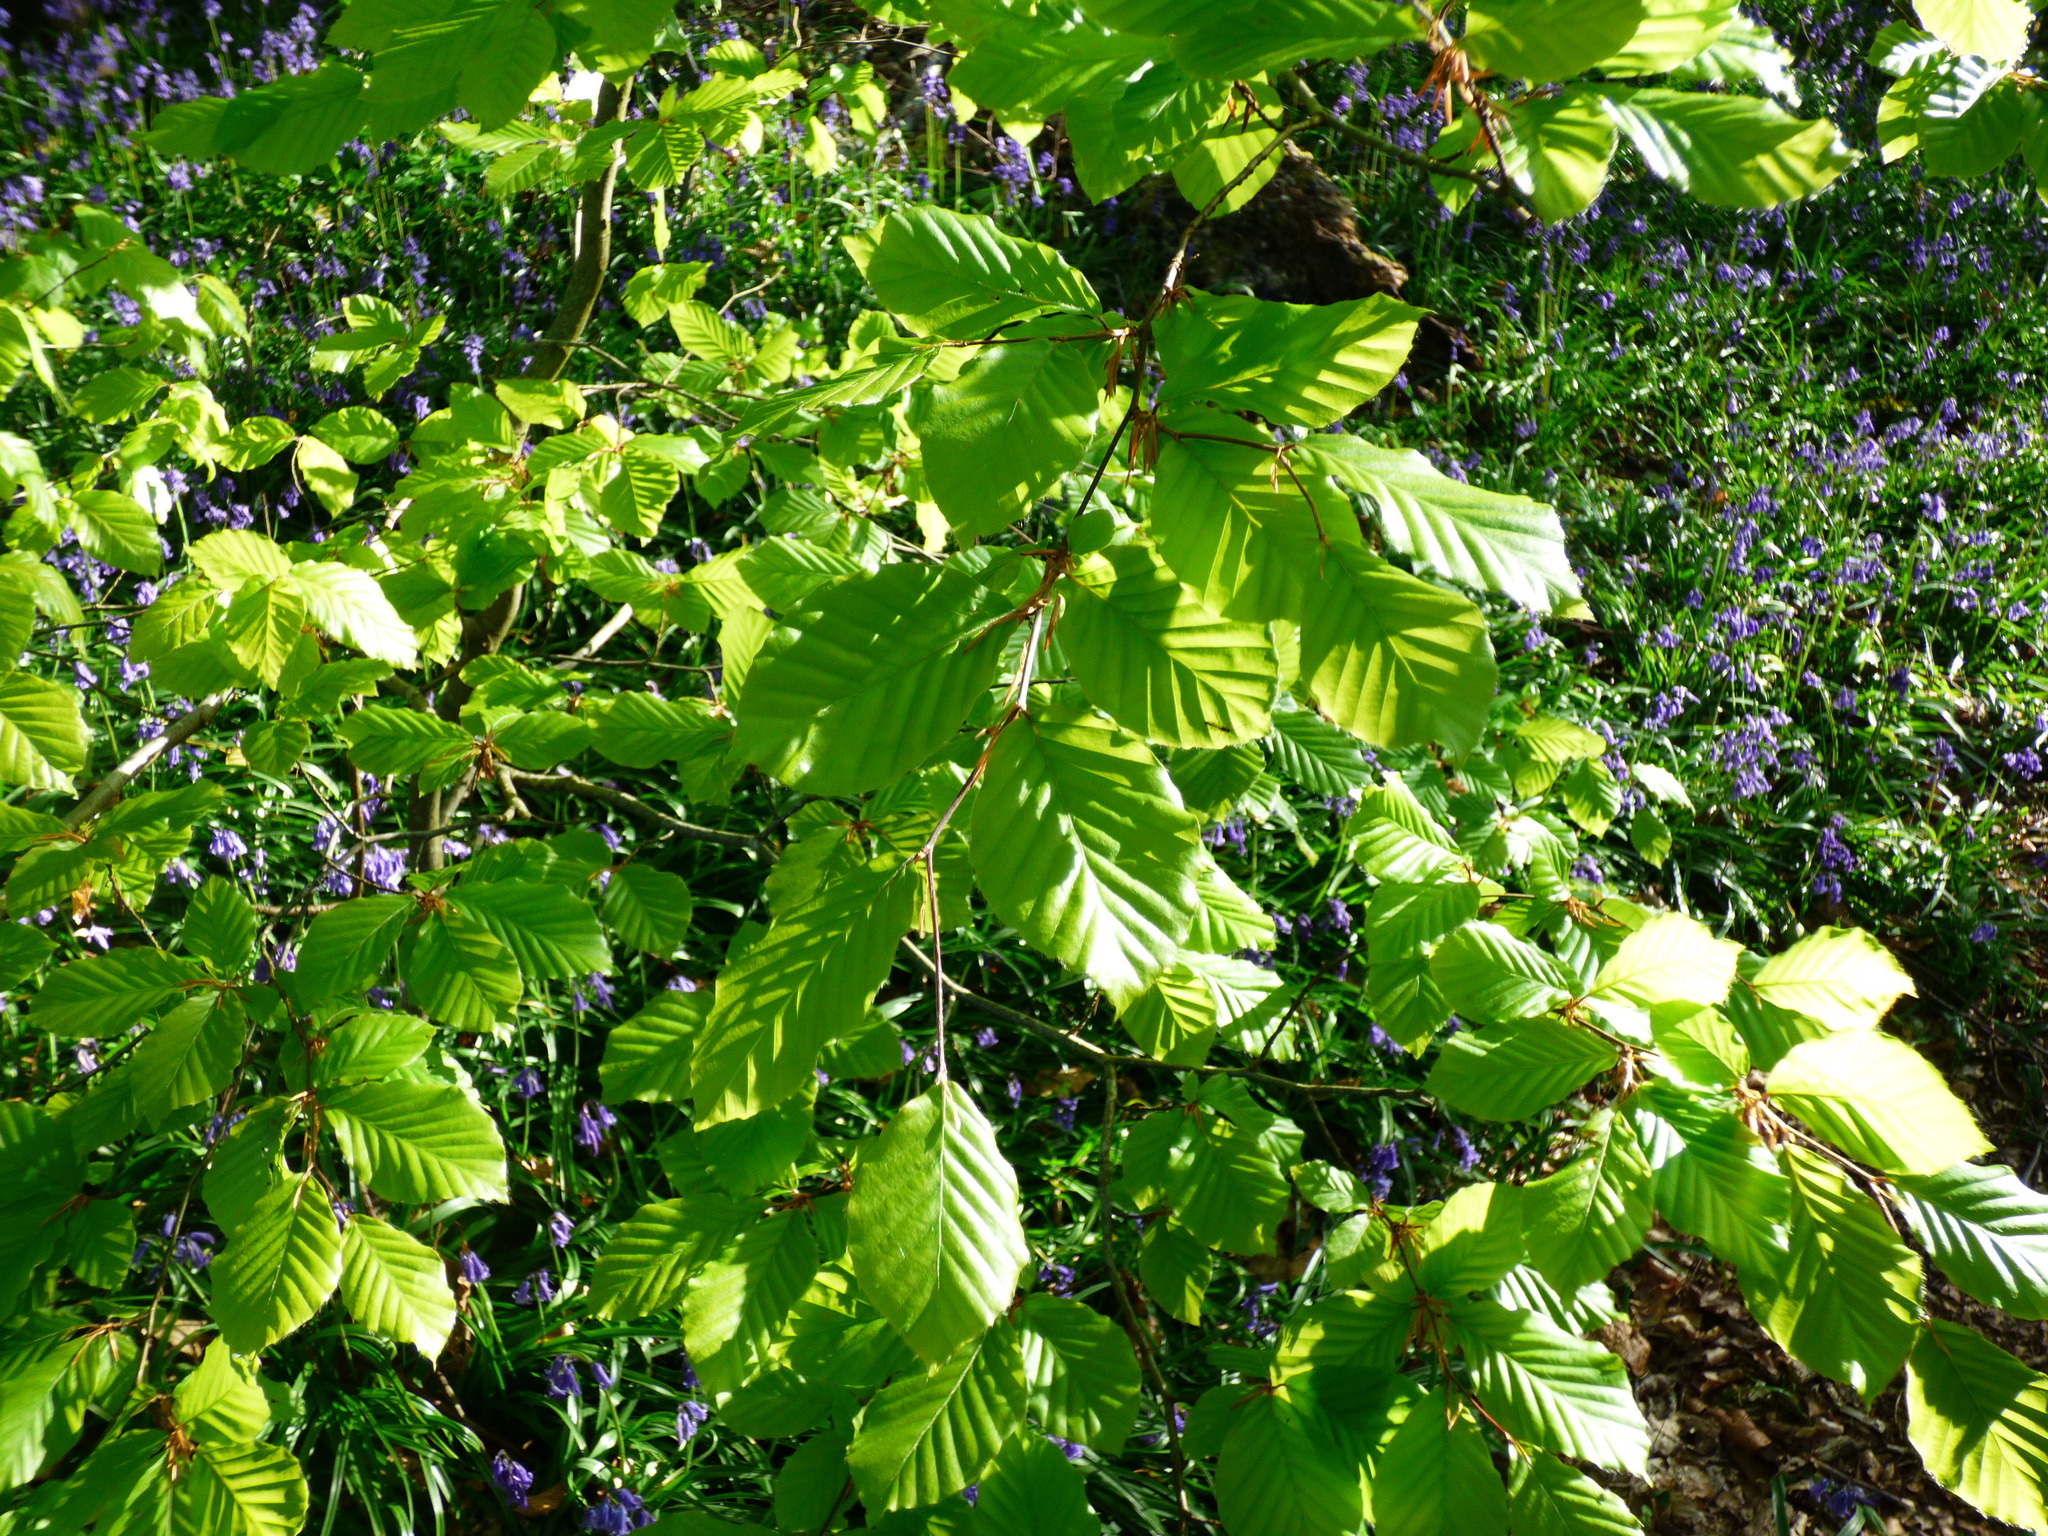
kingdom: Plantae
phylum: Tracheophyta
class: Magnoliopsida
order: Fagales
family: Fagaceae
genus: Fagus
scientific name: Fagus sylvatica
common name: Beech
